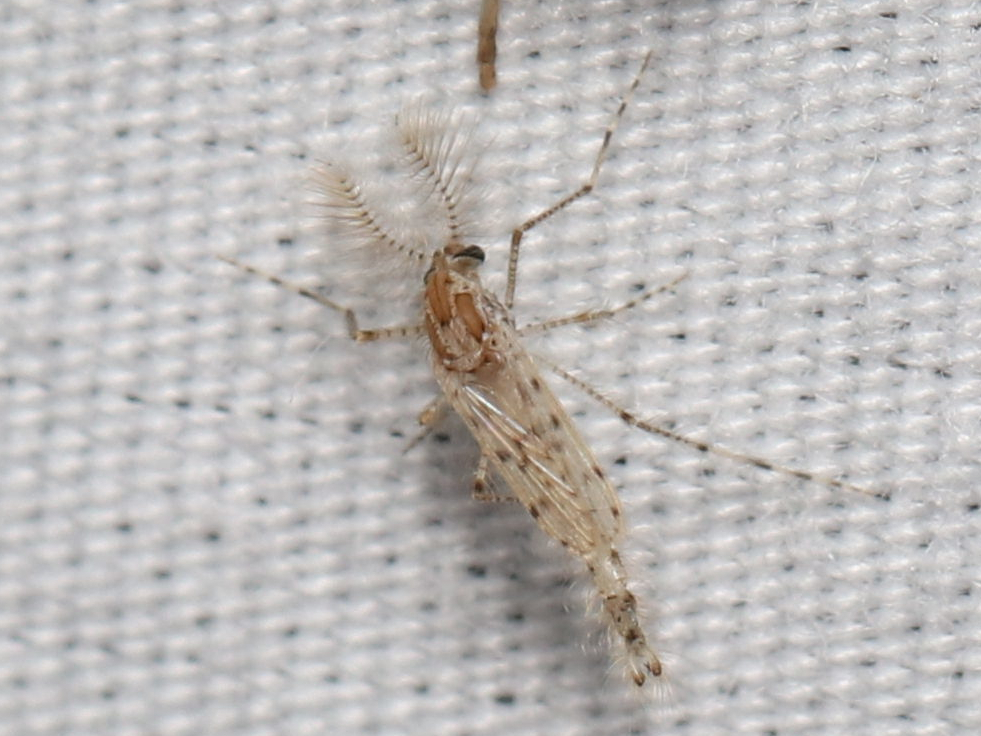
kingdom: Animalia
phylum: Arthropoda
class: Insecta
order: Diptera
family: Chaoboridae
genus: Chaoborus
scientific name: Chaoborus punctipennis
